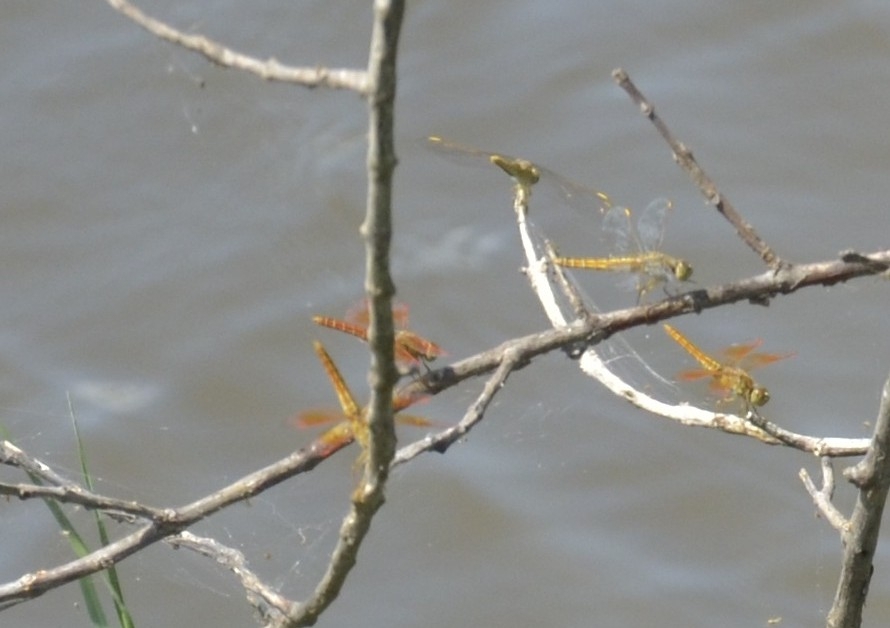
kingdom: Animalia
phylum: Arthropoda
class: Insecta
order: Odonata
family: Libellulidae
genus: Brachythemis
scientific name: Brachythemis contaminata
